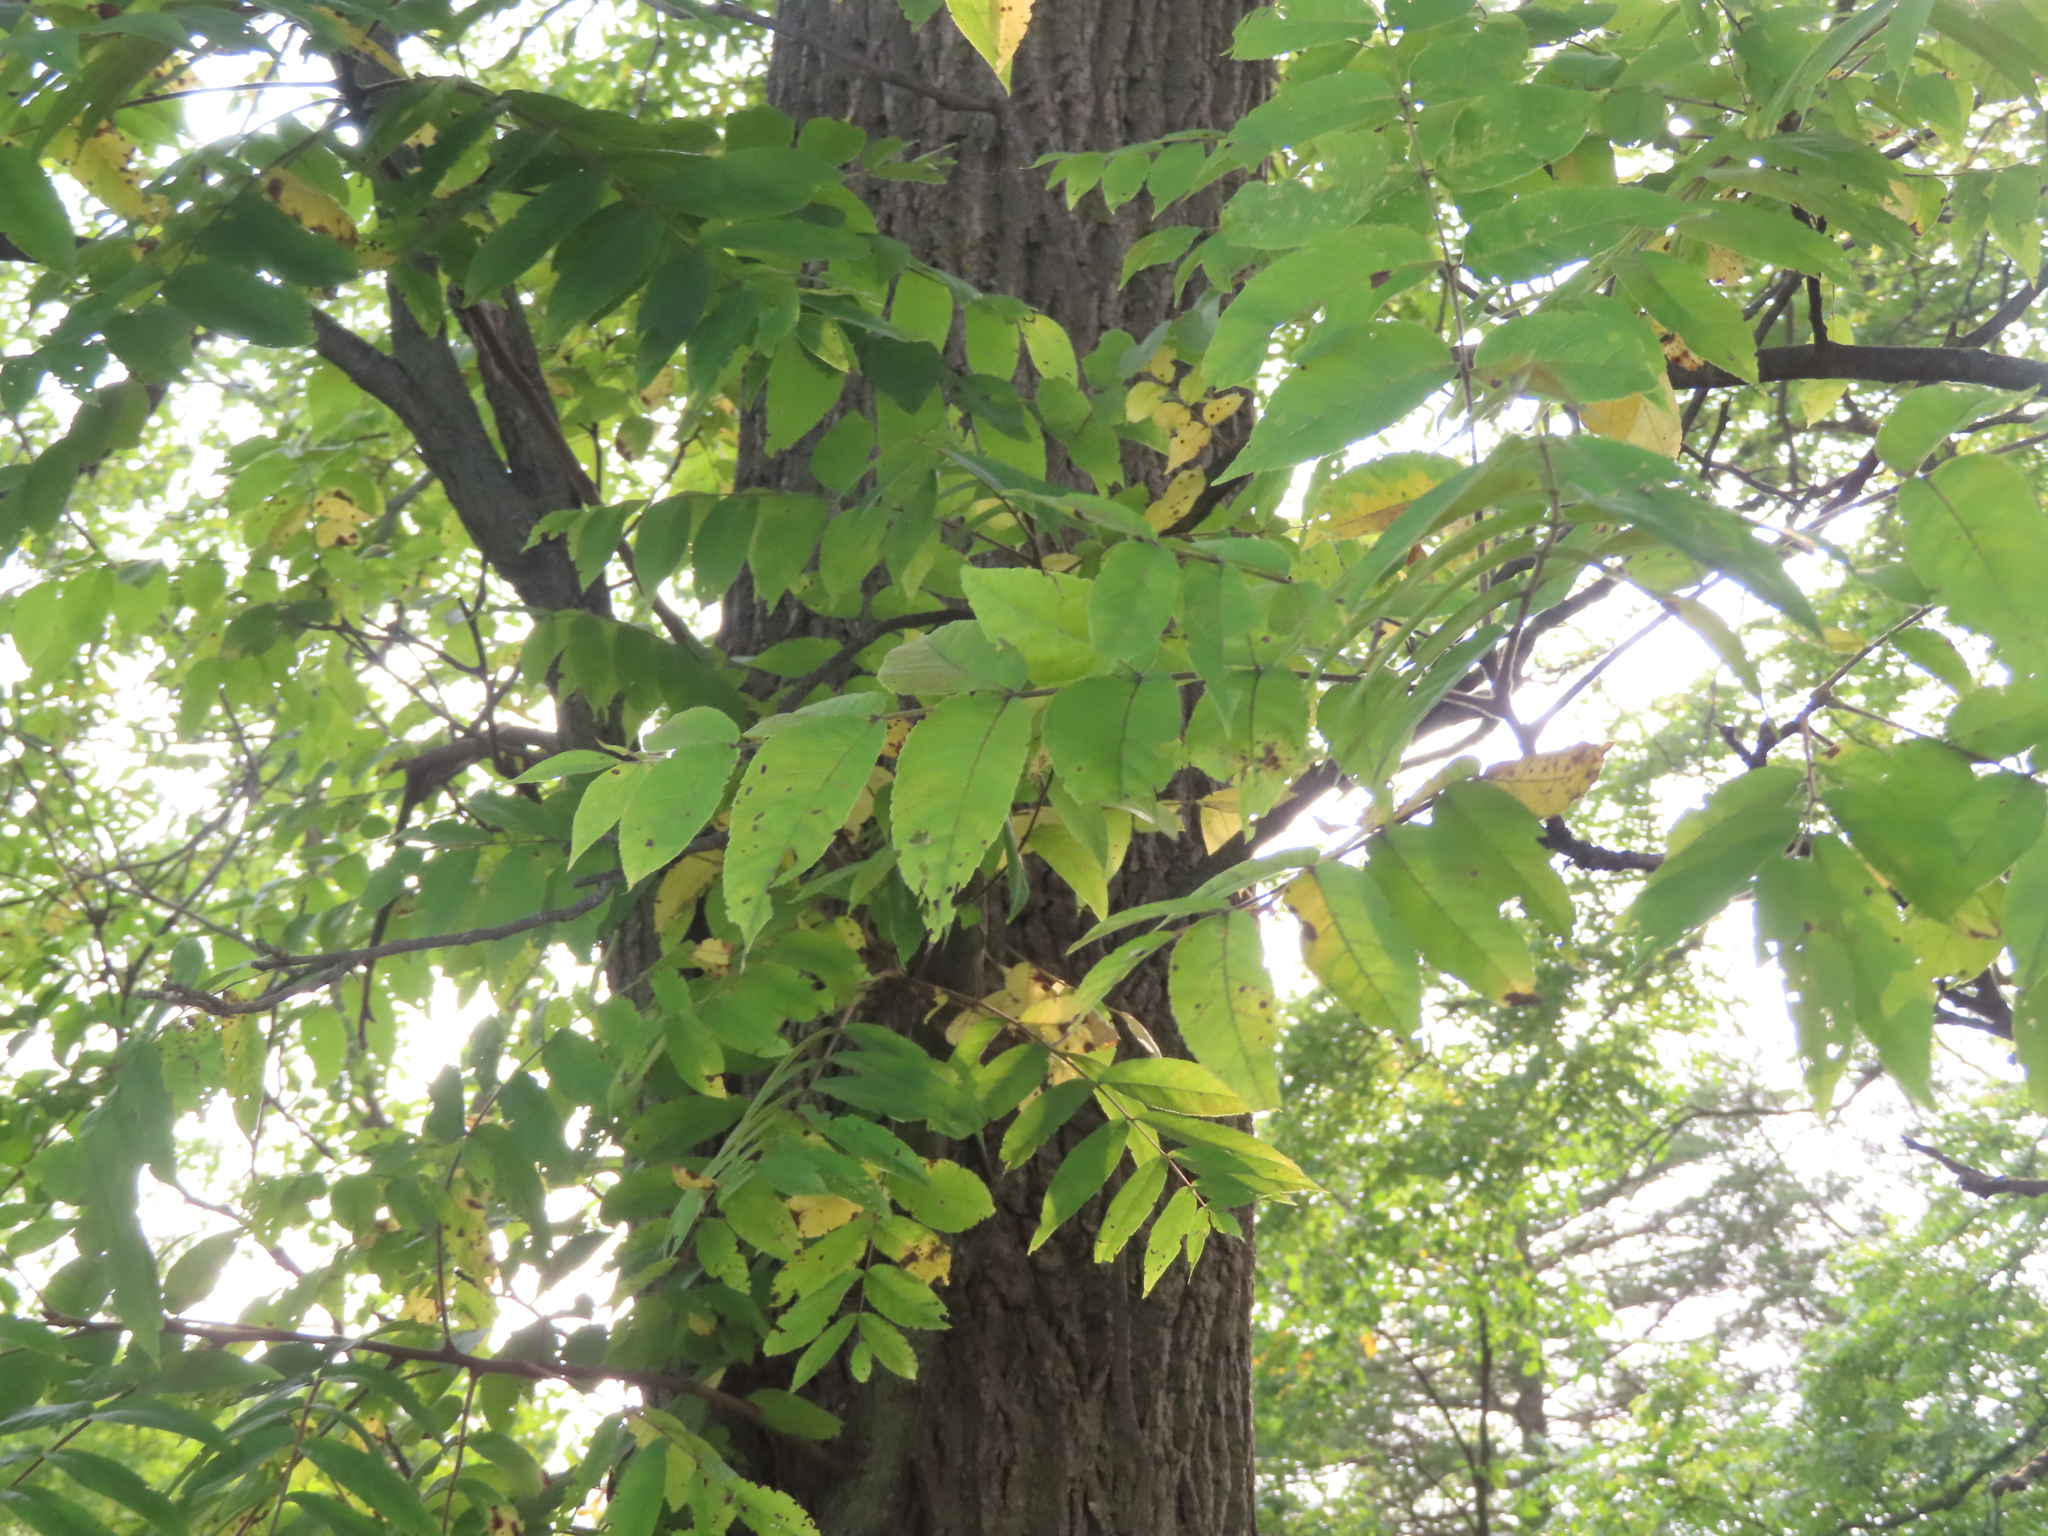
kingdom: Plantae
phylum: Tracheophyta
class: Magnoliopsida
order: Fagales
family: Juglandaceae
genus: Juglans
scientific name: Juglans nigra
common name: Black walnut
